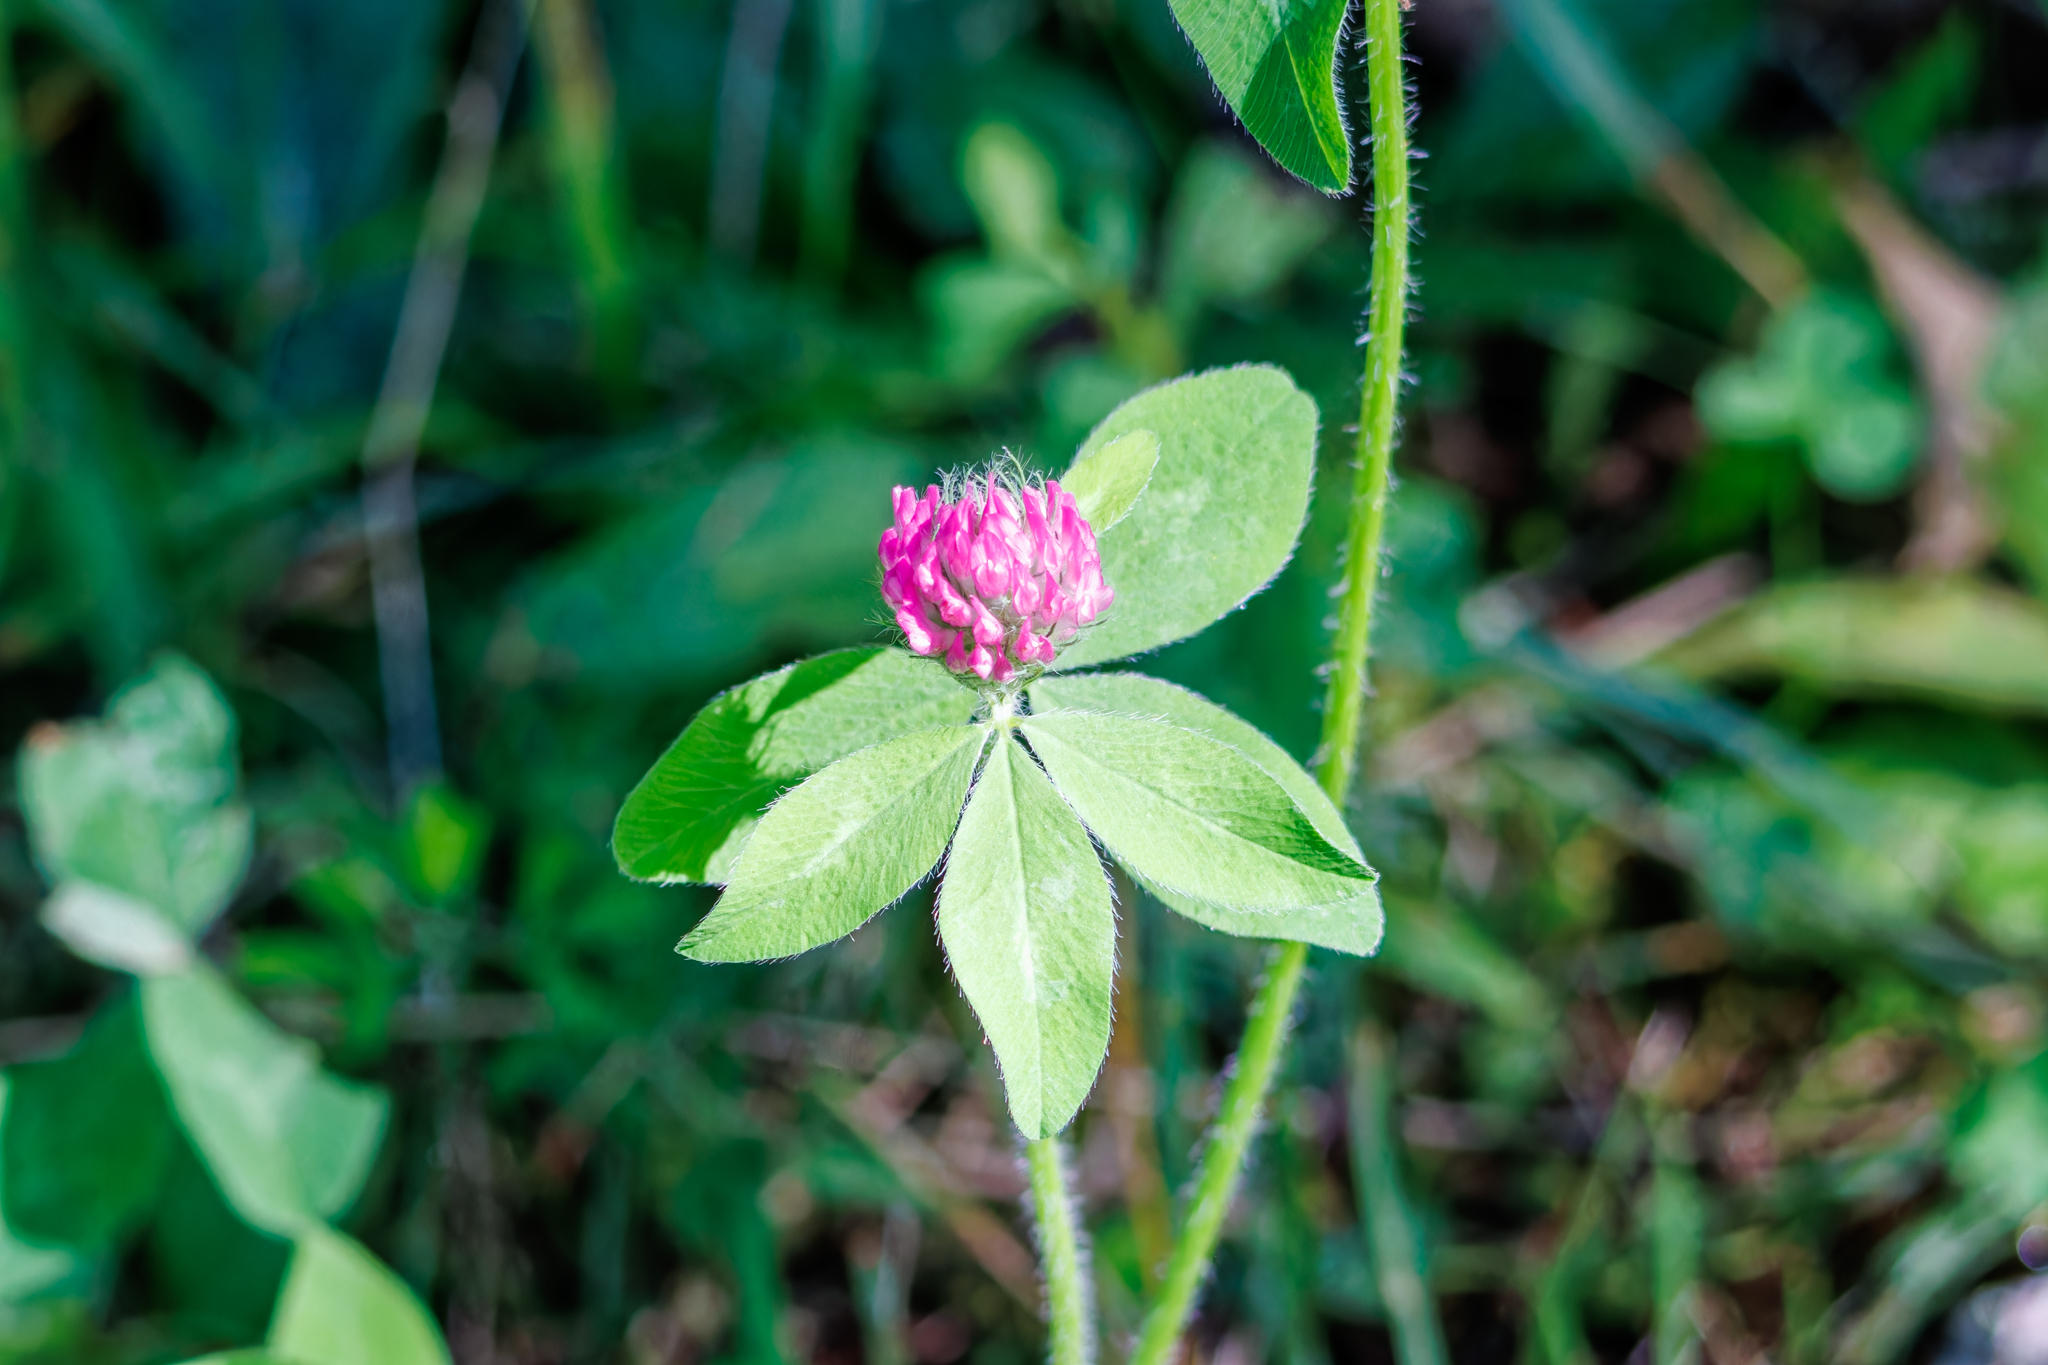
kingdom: Plantae
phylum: Tracheophyta
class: Magnoliopsida
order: Fabales
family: Fabaceae
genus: Trifolium
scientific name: Trifolium pratense
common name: Red clover
